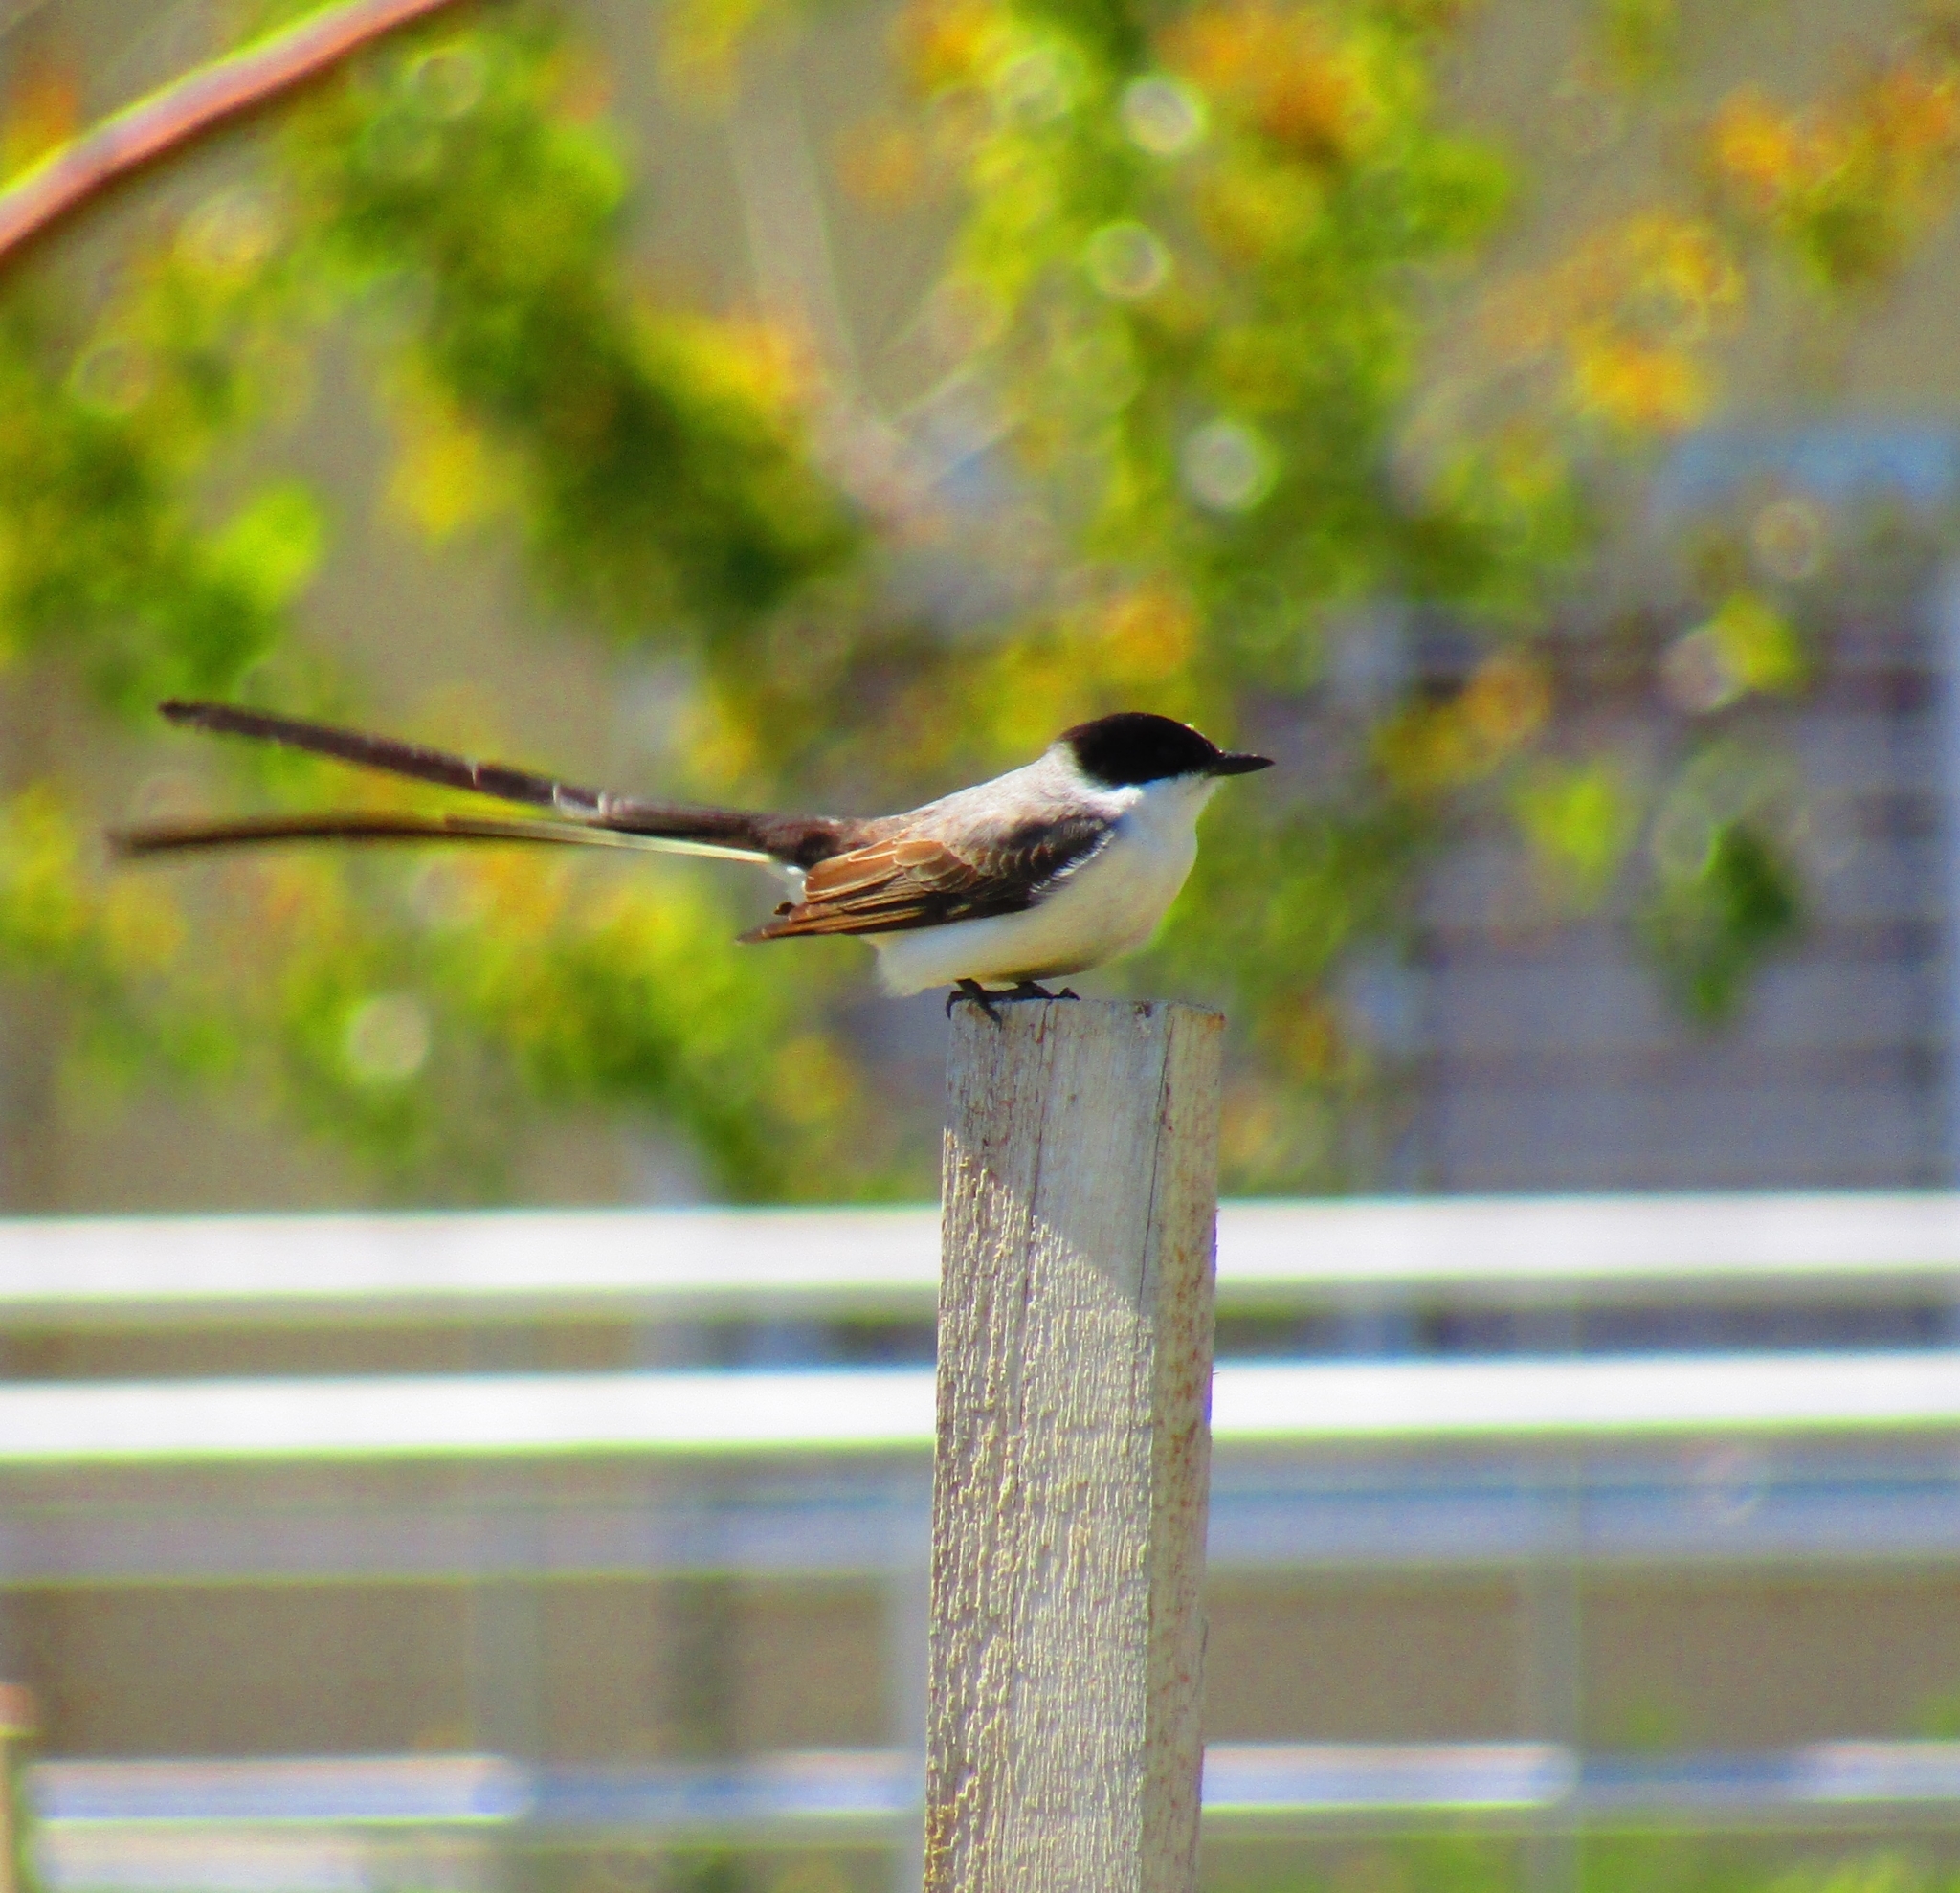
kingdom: Animalia
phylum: Chordata
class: Aves
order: Passeriformes
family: Tyrannidae
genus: Tyrannus
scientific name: Tyrannus savana
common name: Fork-tailed flycatcher
